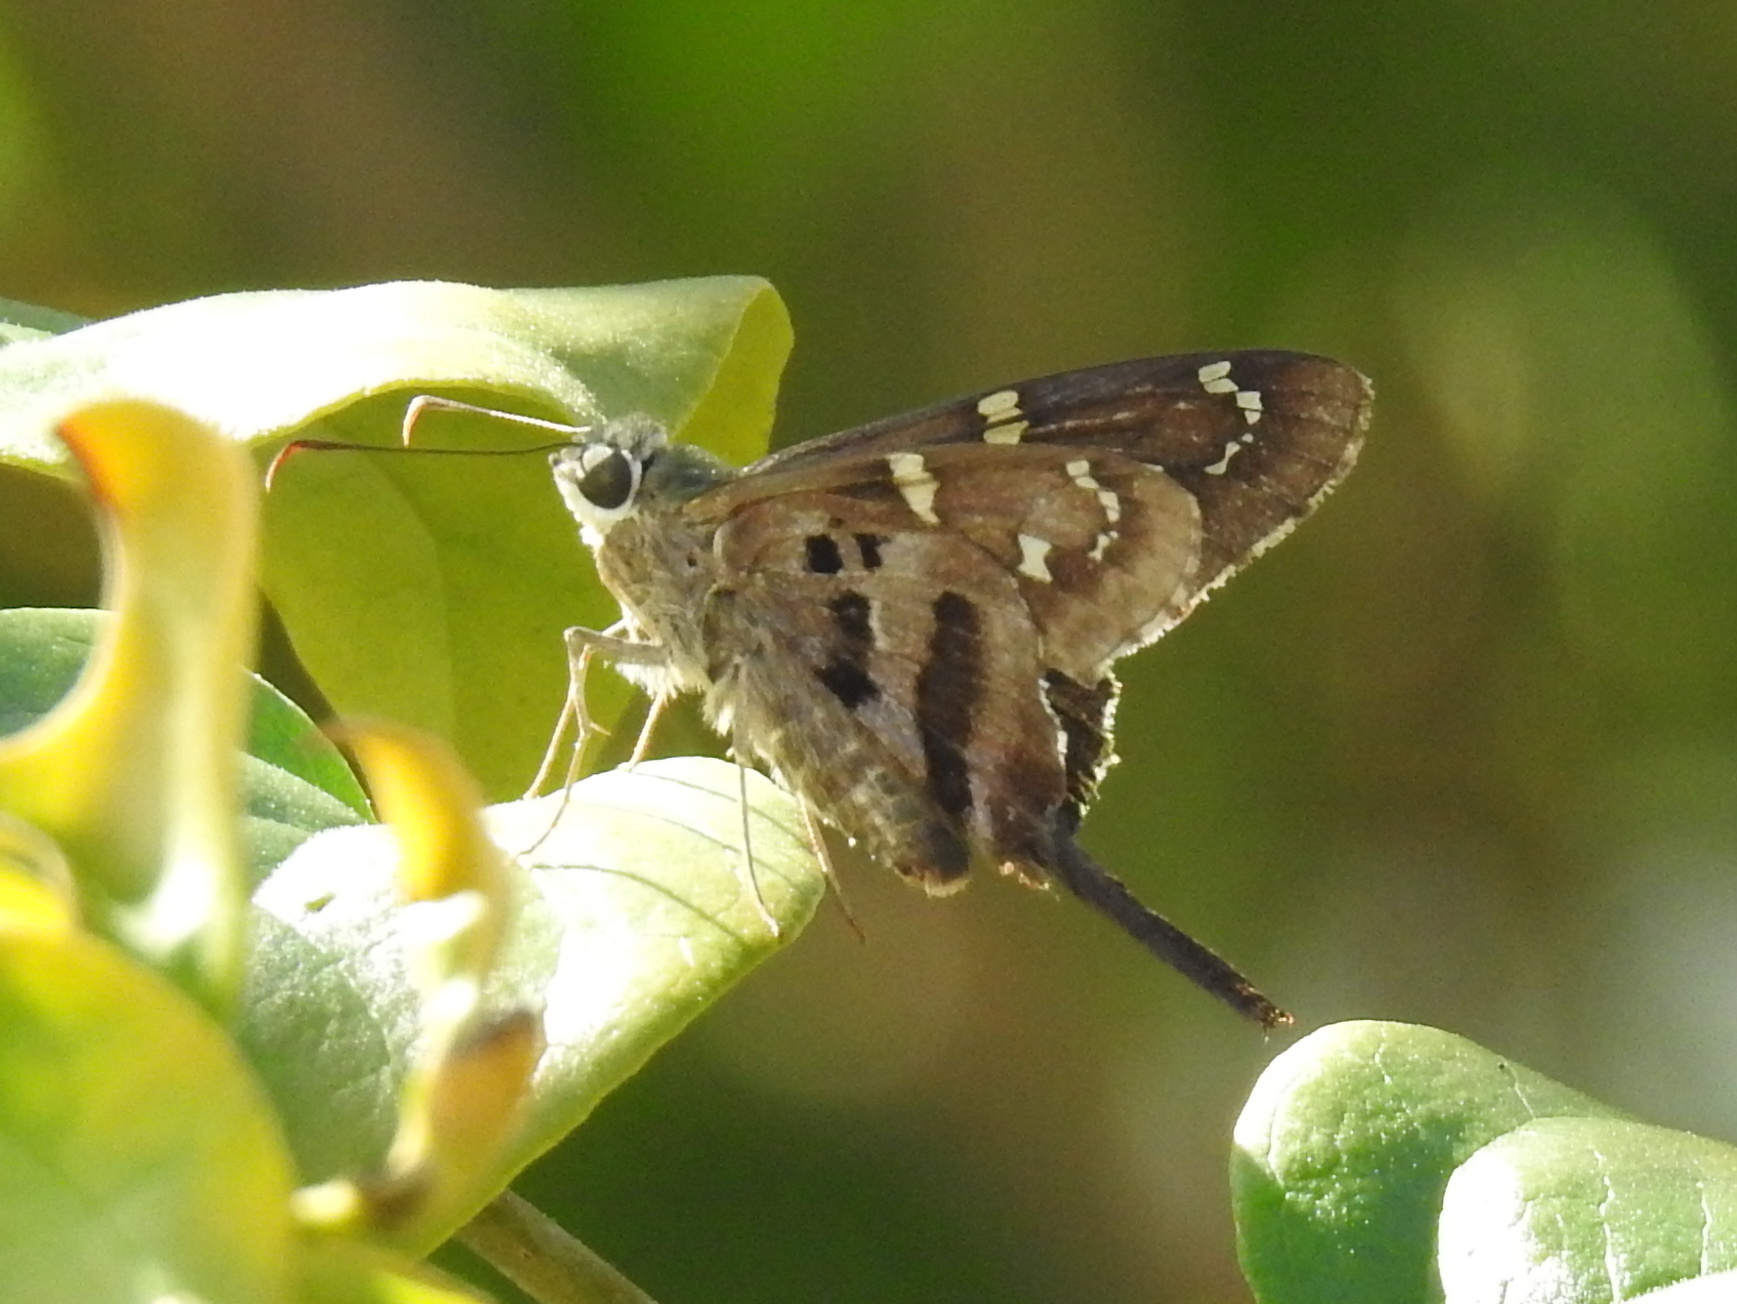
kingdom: Animalia
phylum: Arthropoda
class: Insecta
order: Lepidoptera
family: Hesperiidae
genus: Urbanus
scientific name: Urbanus proteus
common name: Long-tailed skipper
